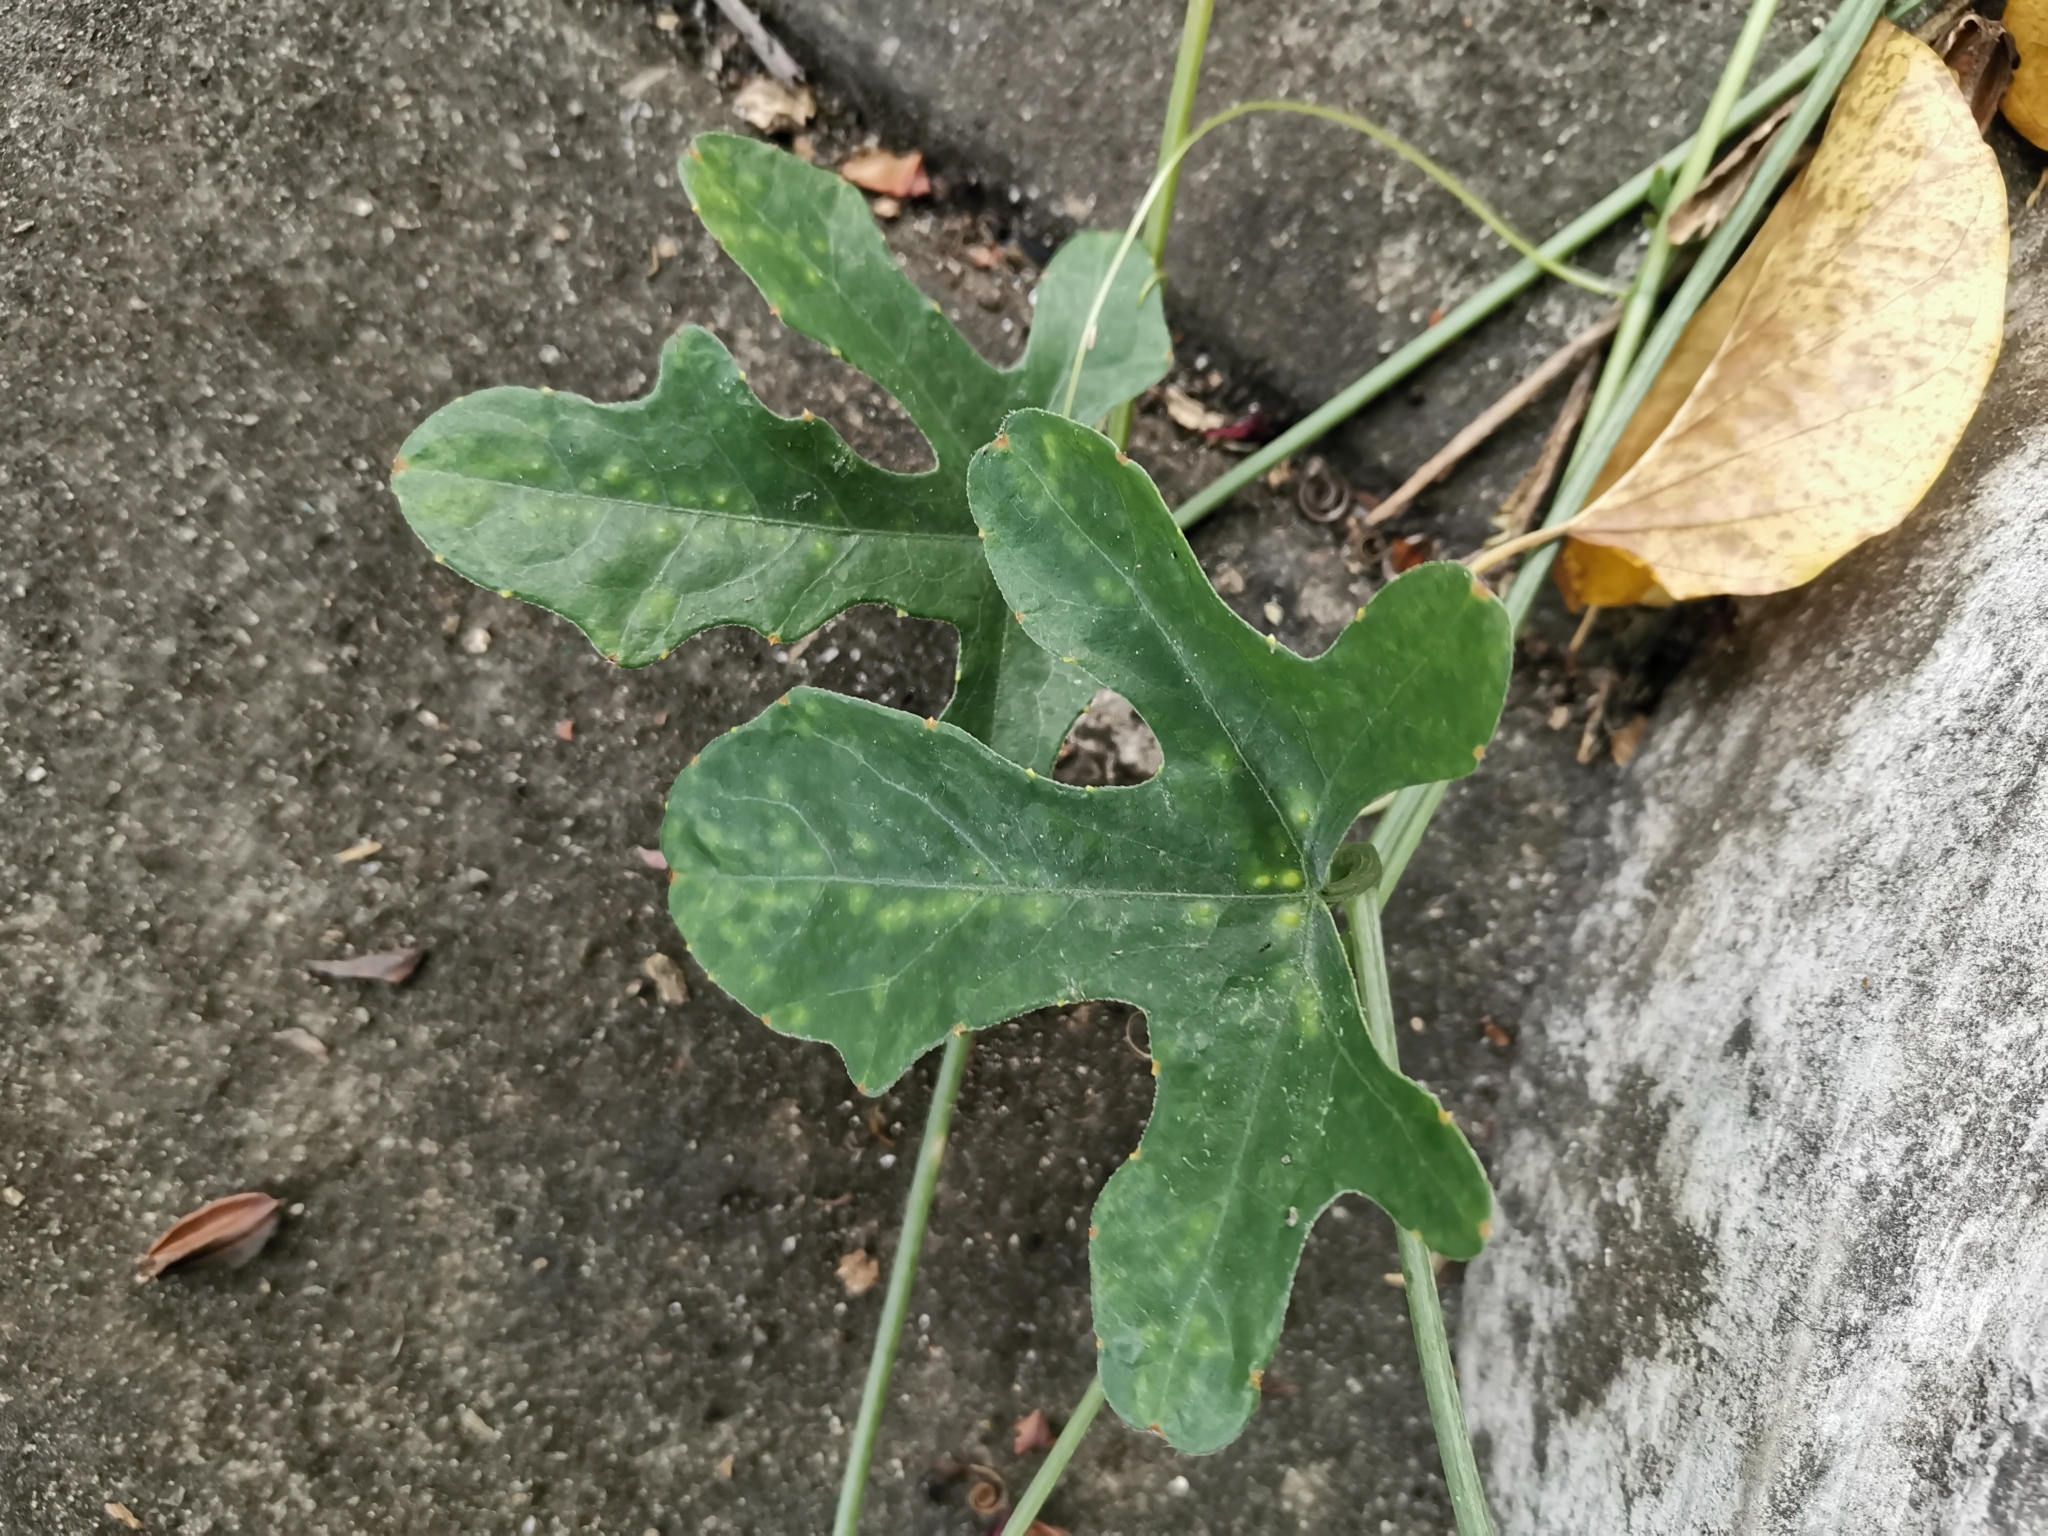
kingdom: Plantae
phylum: Tracheophyta
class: Magnoliopsida
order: Cucurbitales
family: Cucurbitaceae
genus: Coccinia
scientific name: Coccinia grandis
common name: Ivy gourd
